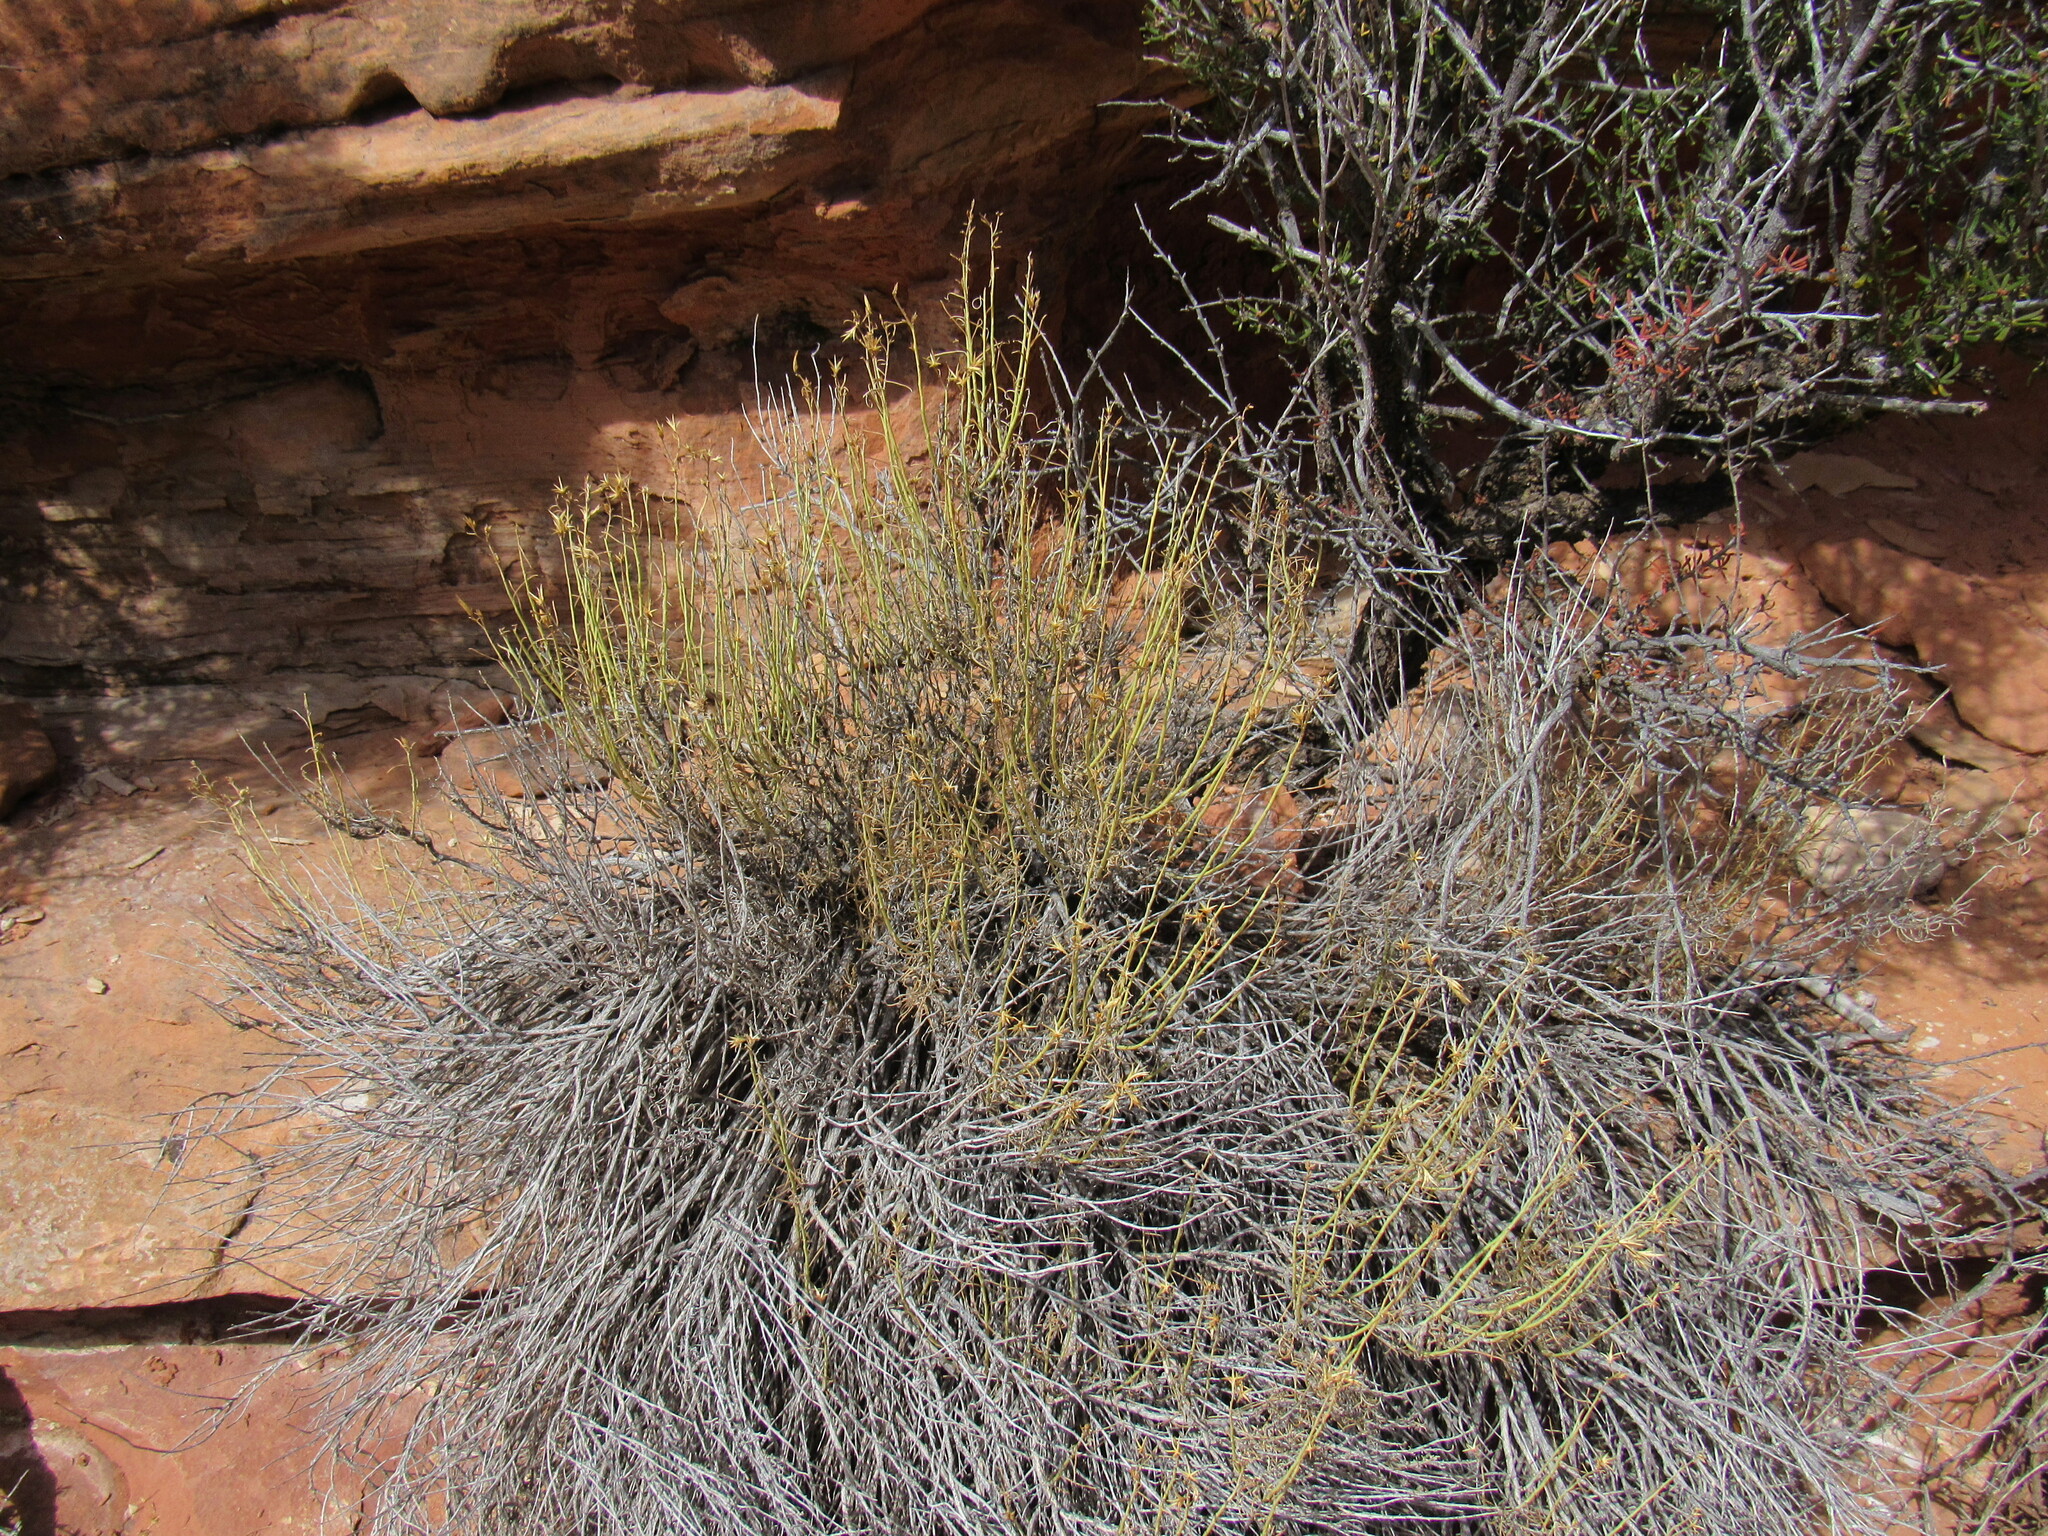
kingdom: Plantae
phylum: Tracheophyta
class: Magnoliopsida
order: Asterales
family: Asteraceae
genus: Ericameria
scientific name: Ericameria nauseosa
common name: Rubber rabbitbrush
